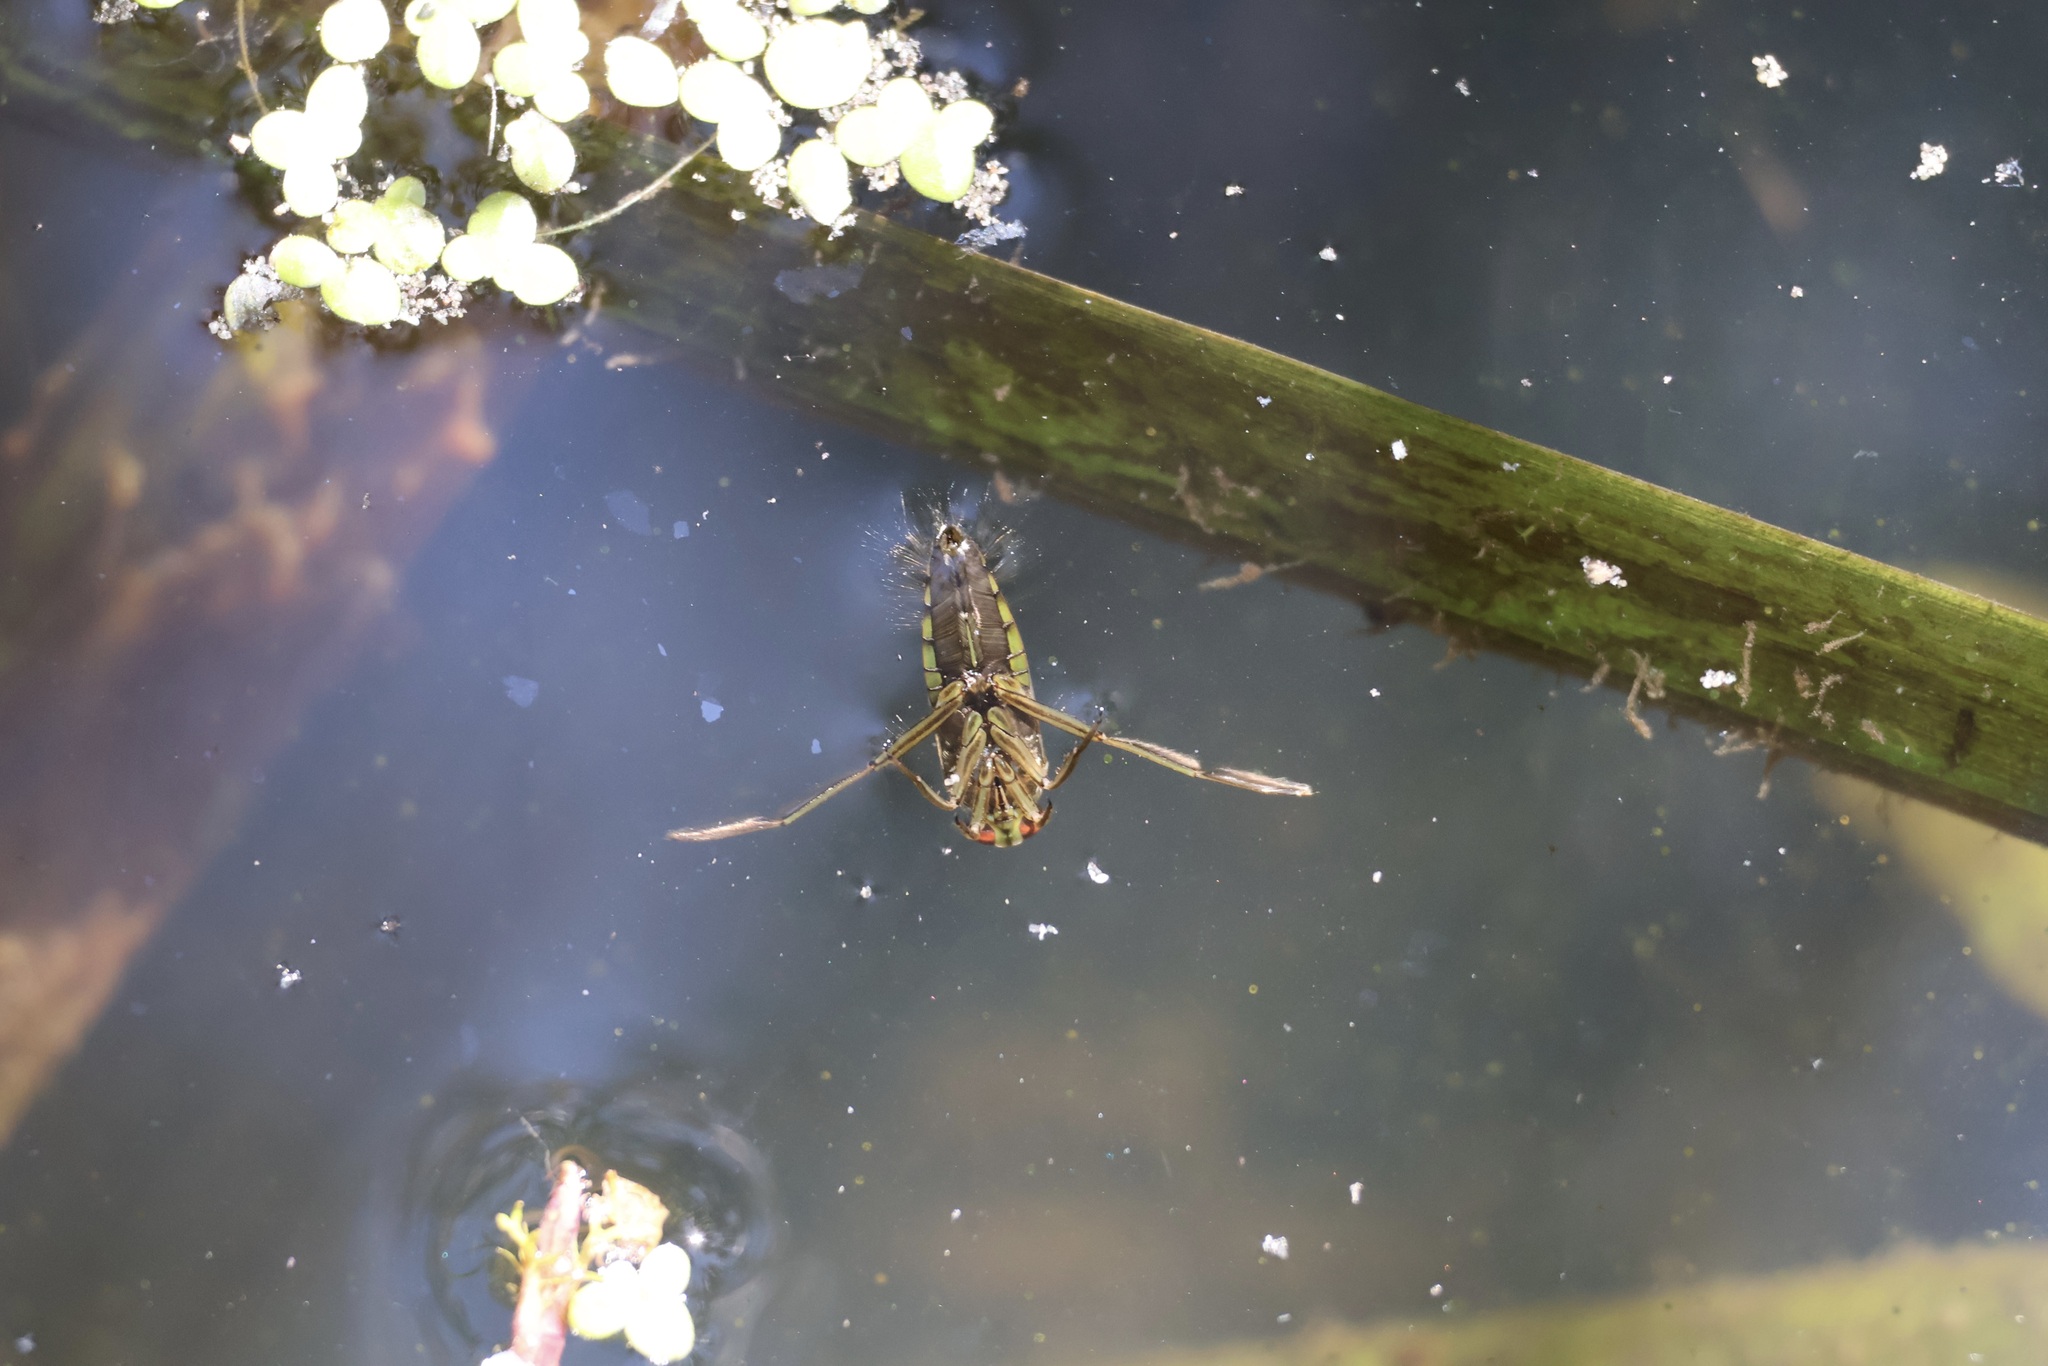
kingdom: Animalia
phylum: Arthropoda
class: Insecta
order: Hemiptera
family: Notonectidae
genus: Notonecta
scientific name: Notonecta
